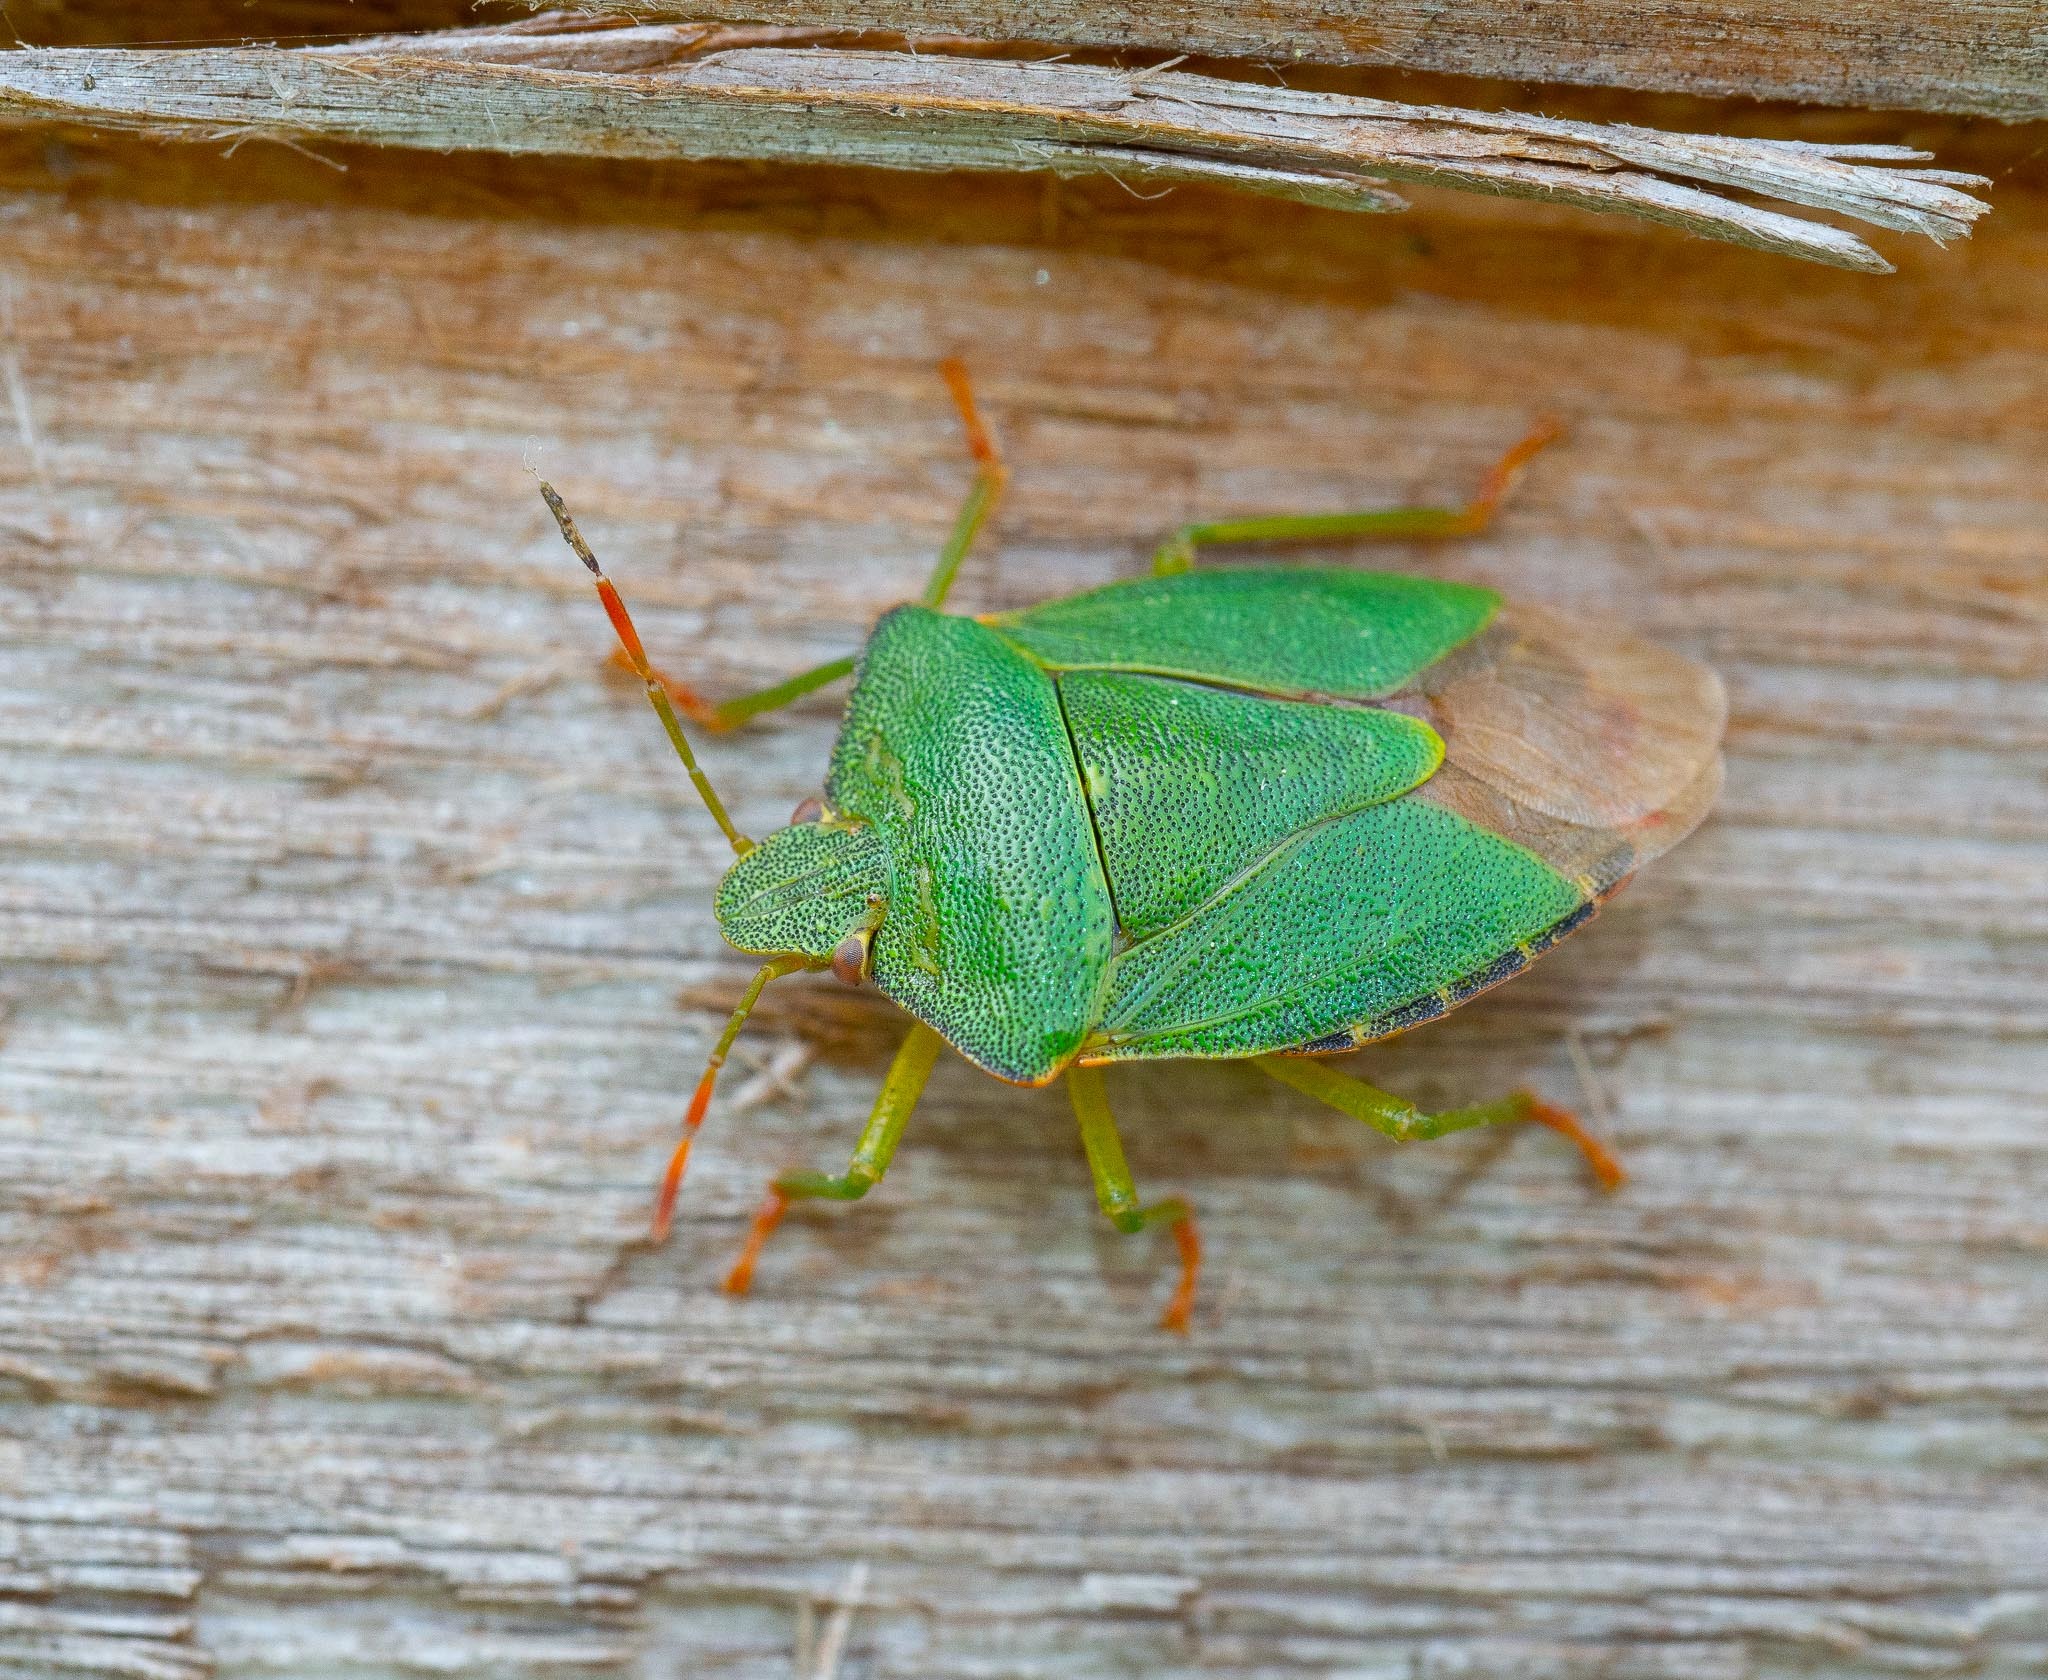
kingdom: Animalia
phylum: Arthropoda
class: Insecta
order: Hemiptera
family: Pentatomidae
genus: Palomena
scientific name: Palomena prasina
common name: Green shieldbug
